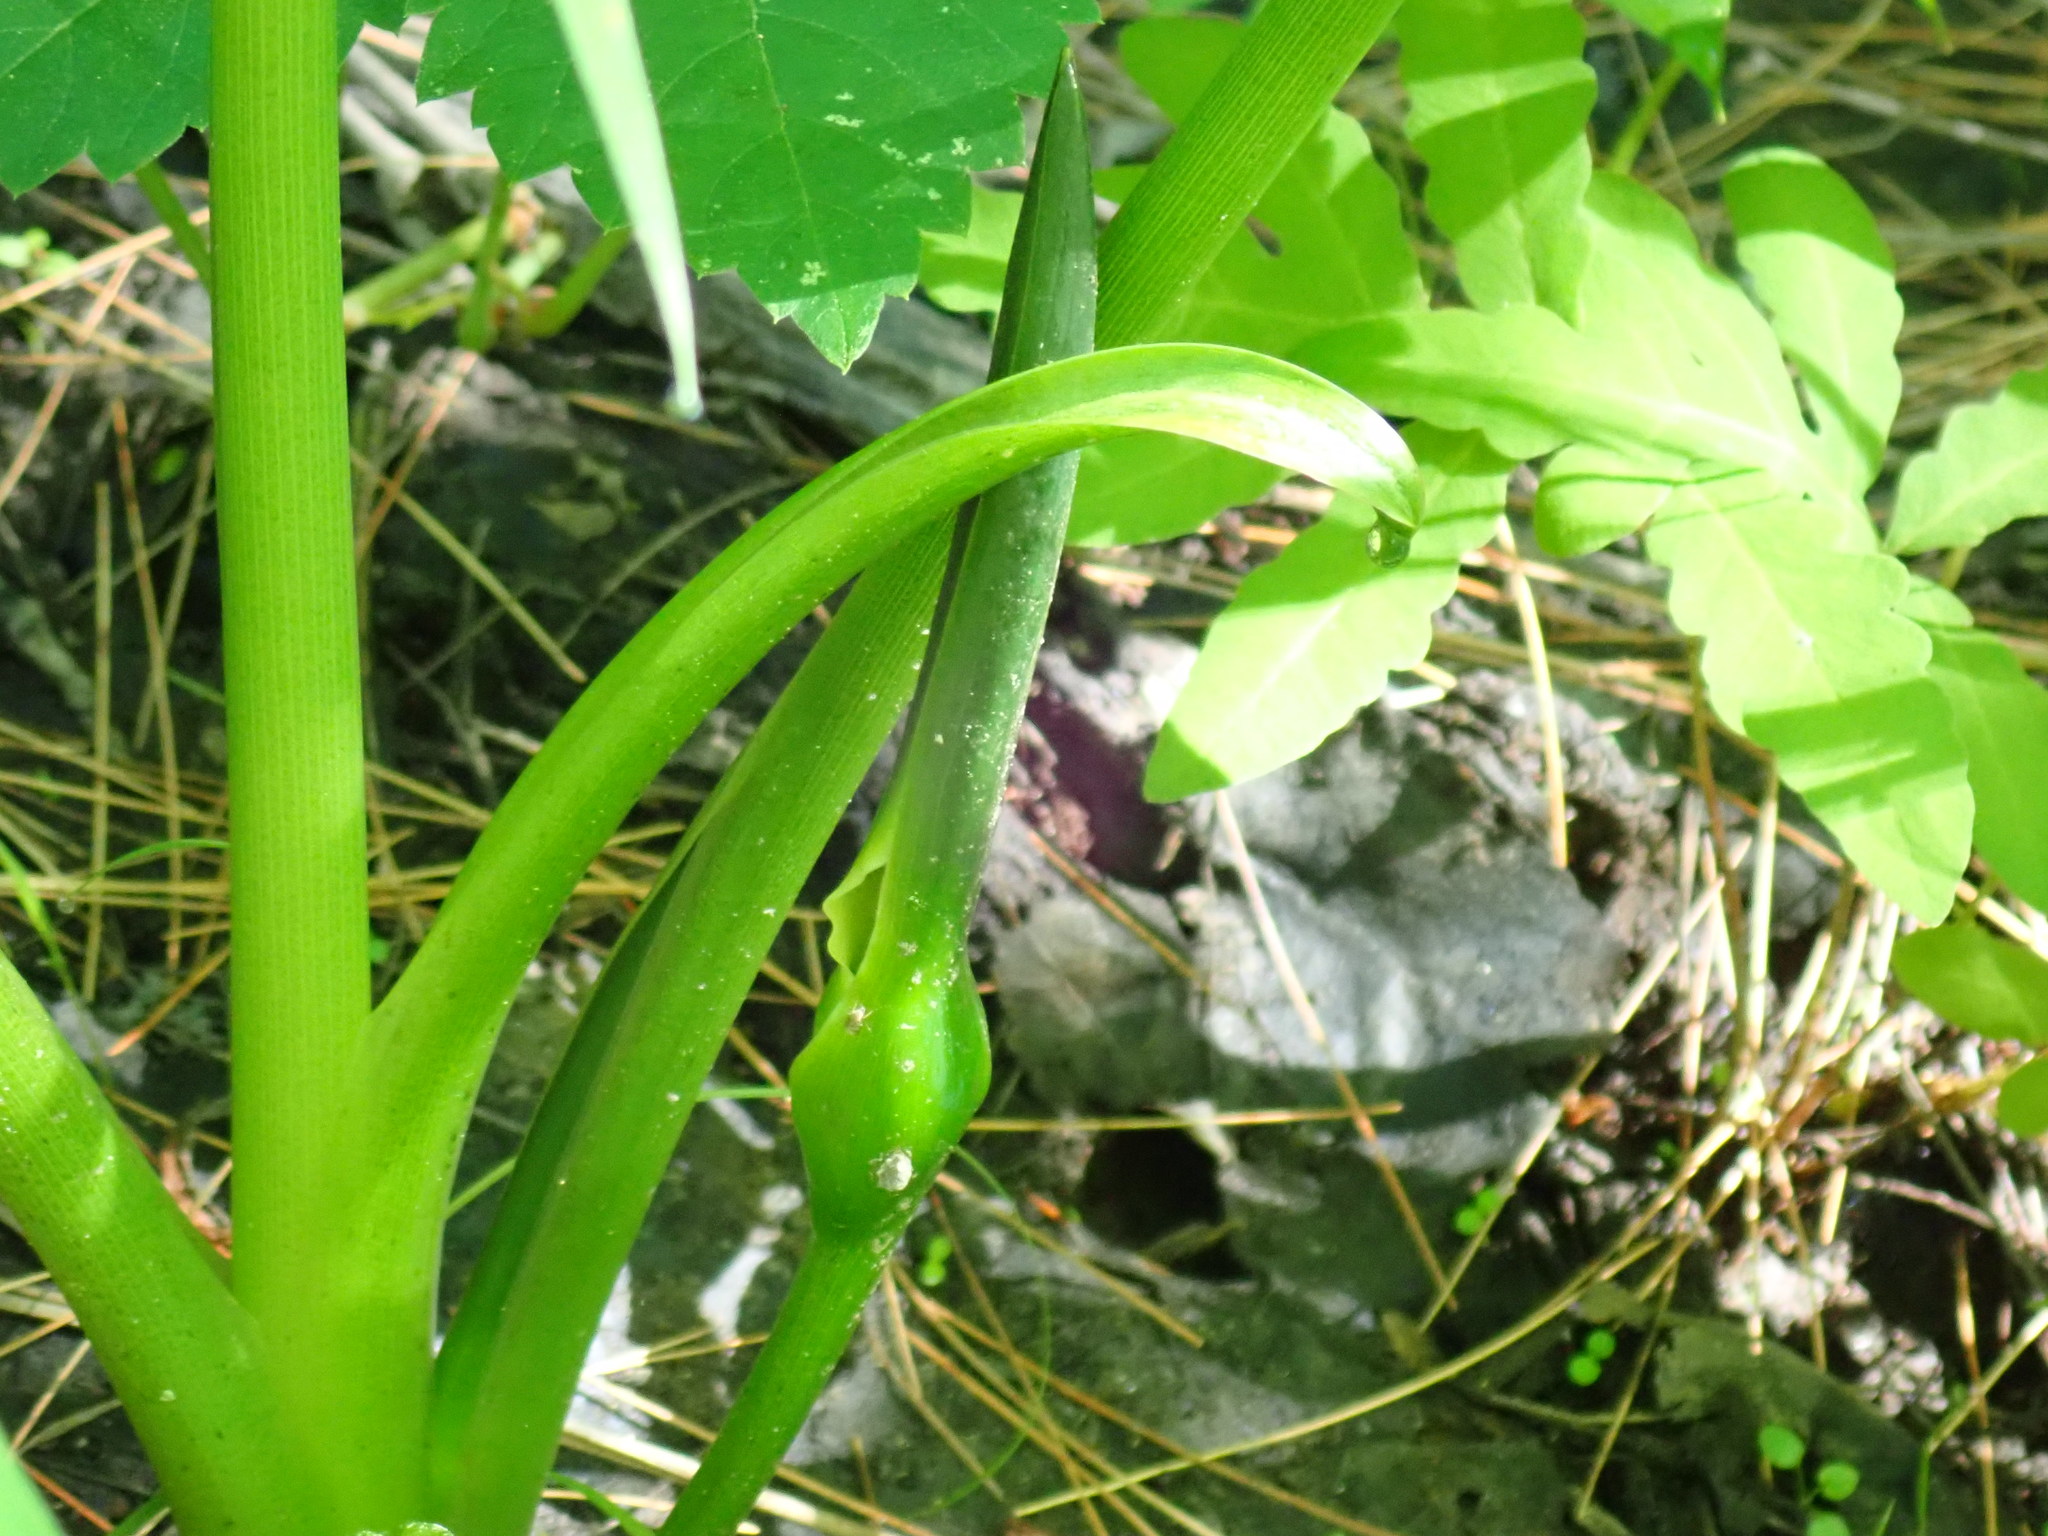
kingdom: Plantae
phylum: Tracheophyta
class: Liliopsida
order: Alismatales
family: Araceae
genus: Peltandra
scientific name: Peltandra virginica
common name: Arrow arum
